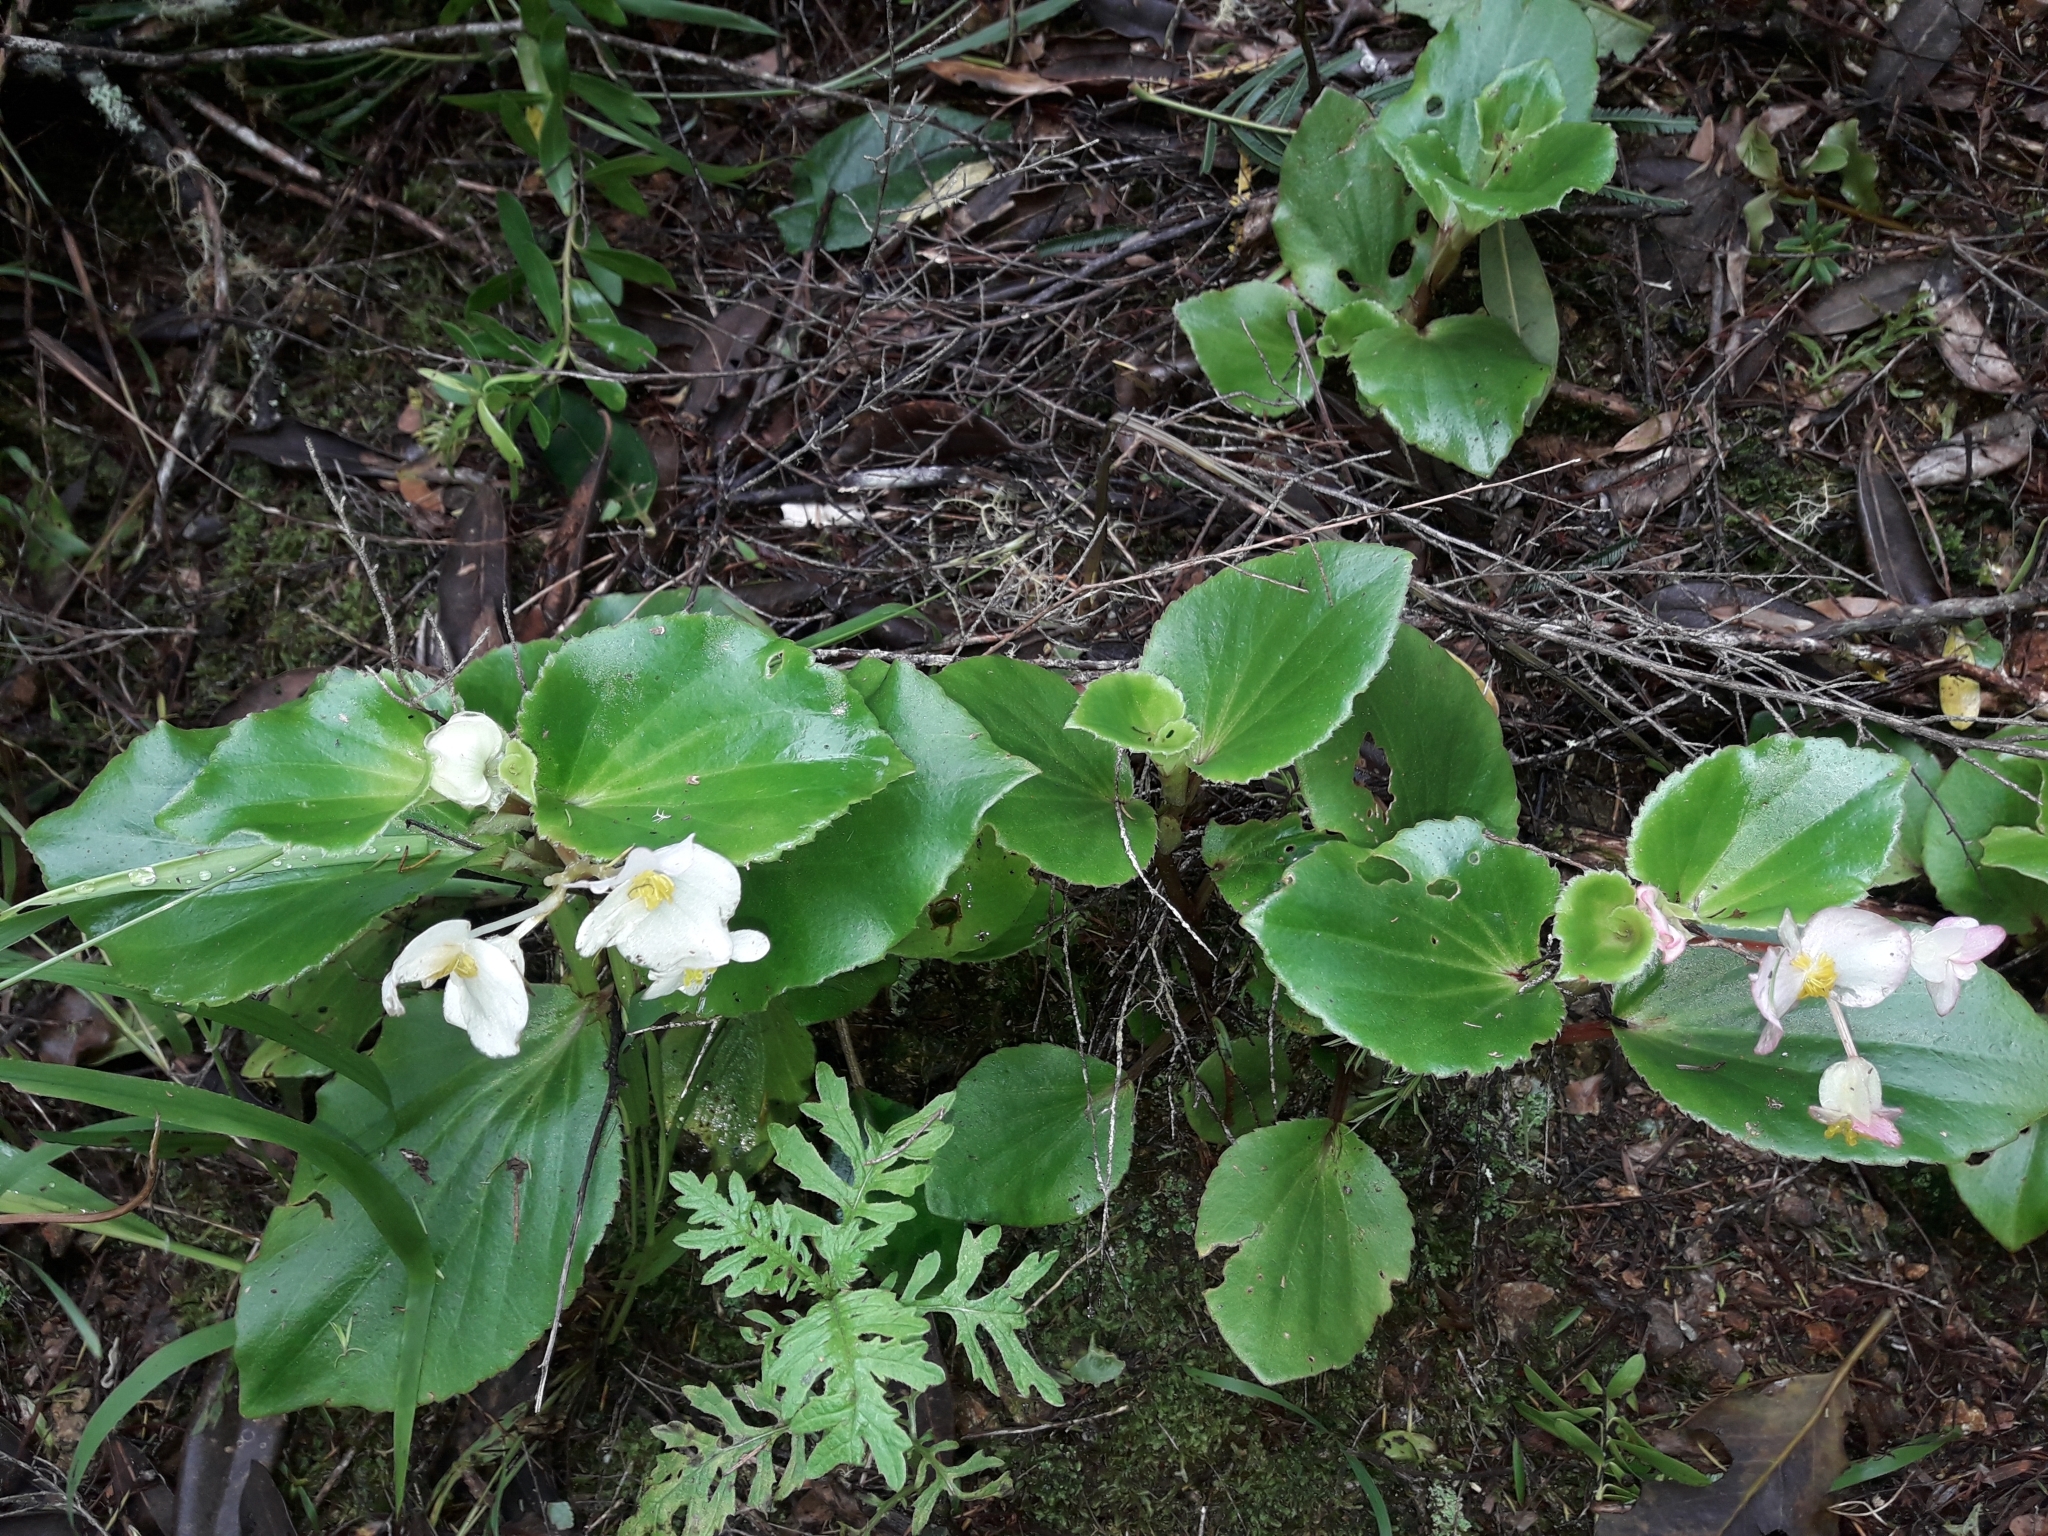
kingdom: Plantae
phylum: Tracheophyta
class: Magnoliopsida
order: Cucurbitales
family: Begoniaceae
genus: Begonia
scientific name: Begonia semperflorens-cultorum
